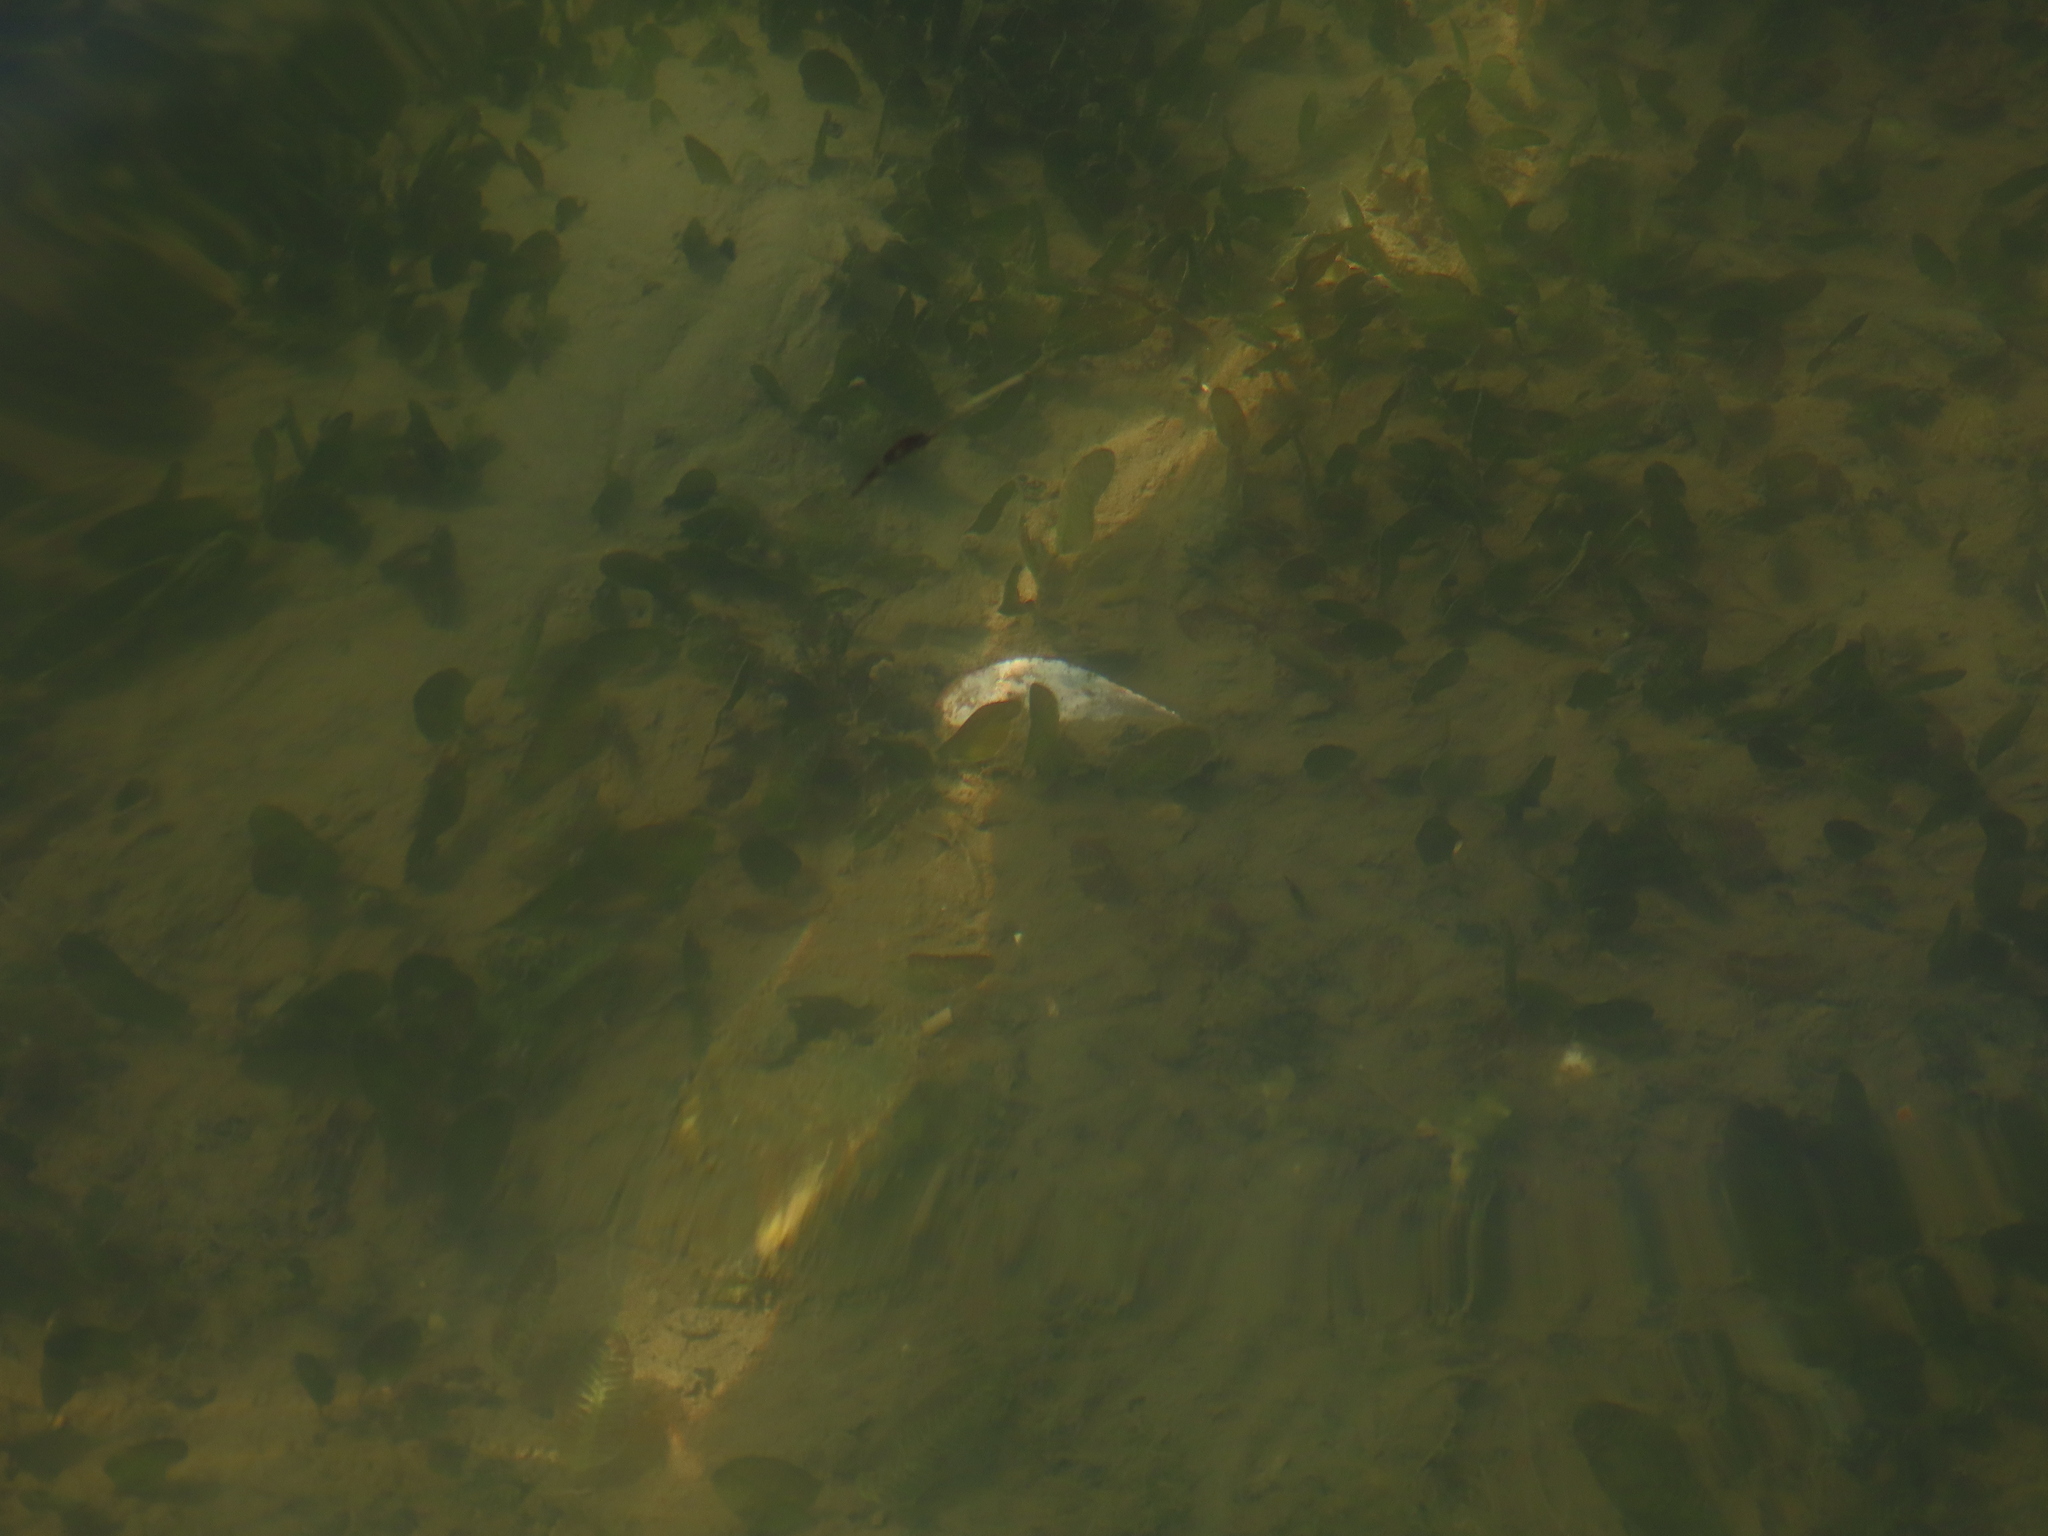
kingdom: Plantae
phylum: Tracheophyta
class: Liliopsida
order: Alismatales
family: Hydrocharitaceae
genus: Halophila
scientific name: Halophila ovalis
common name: Species code: ho
